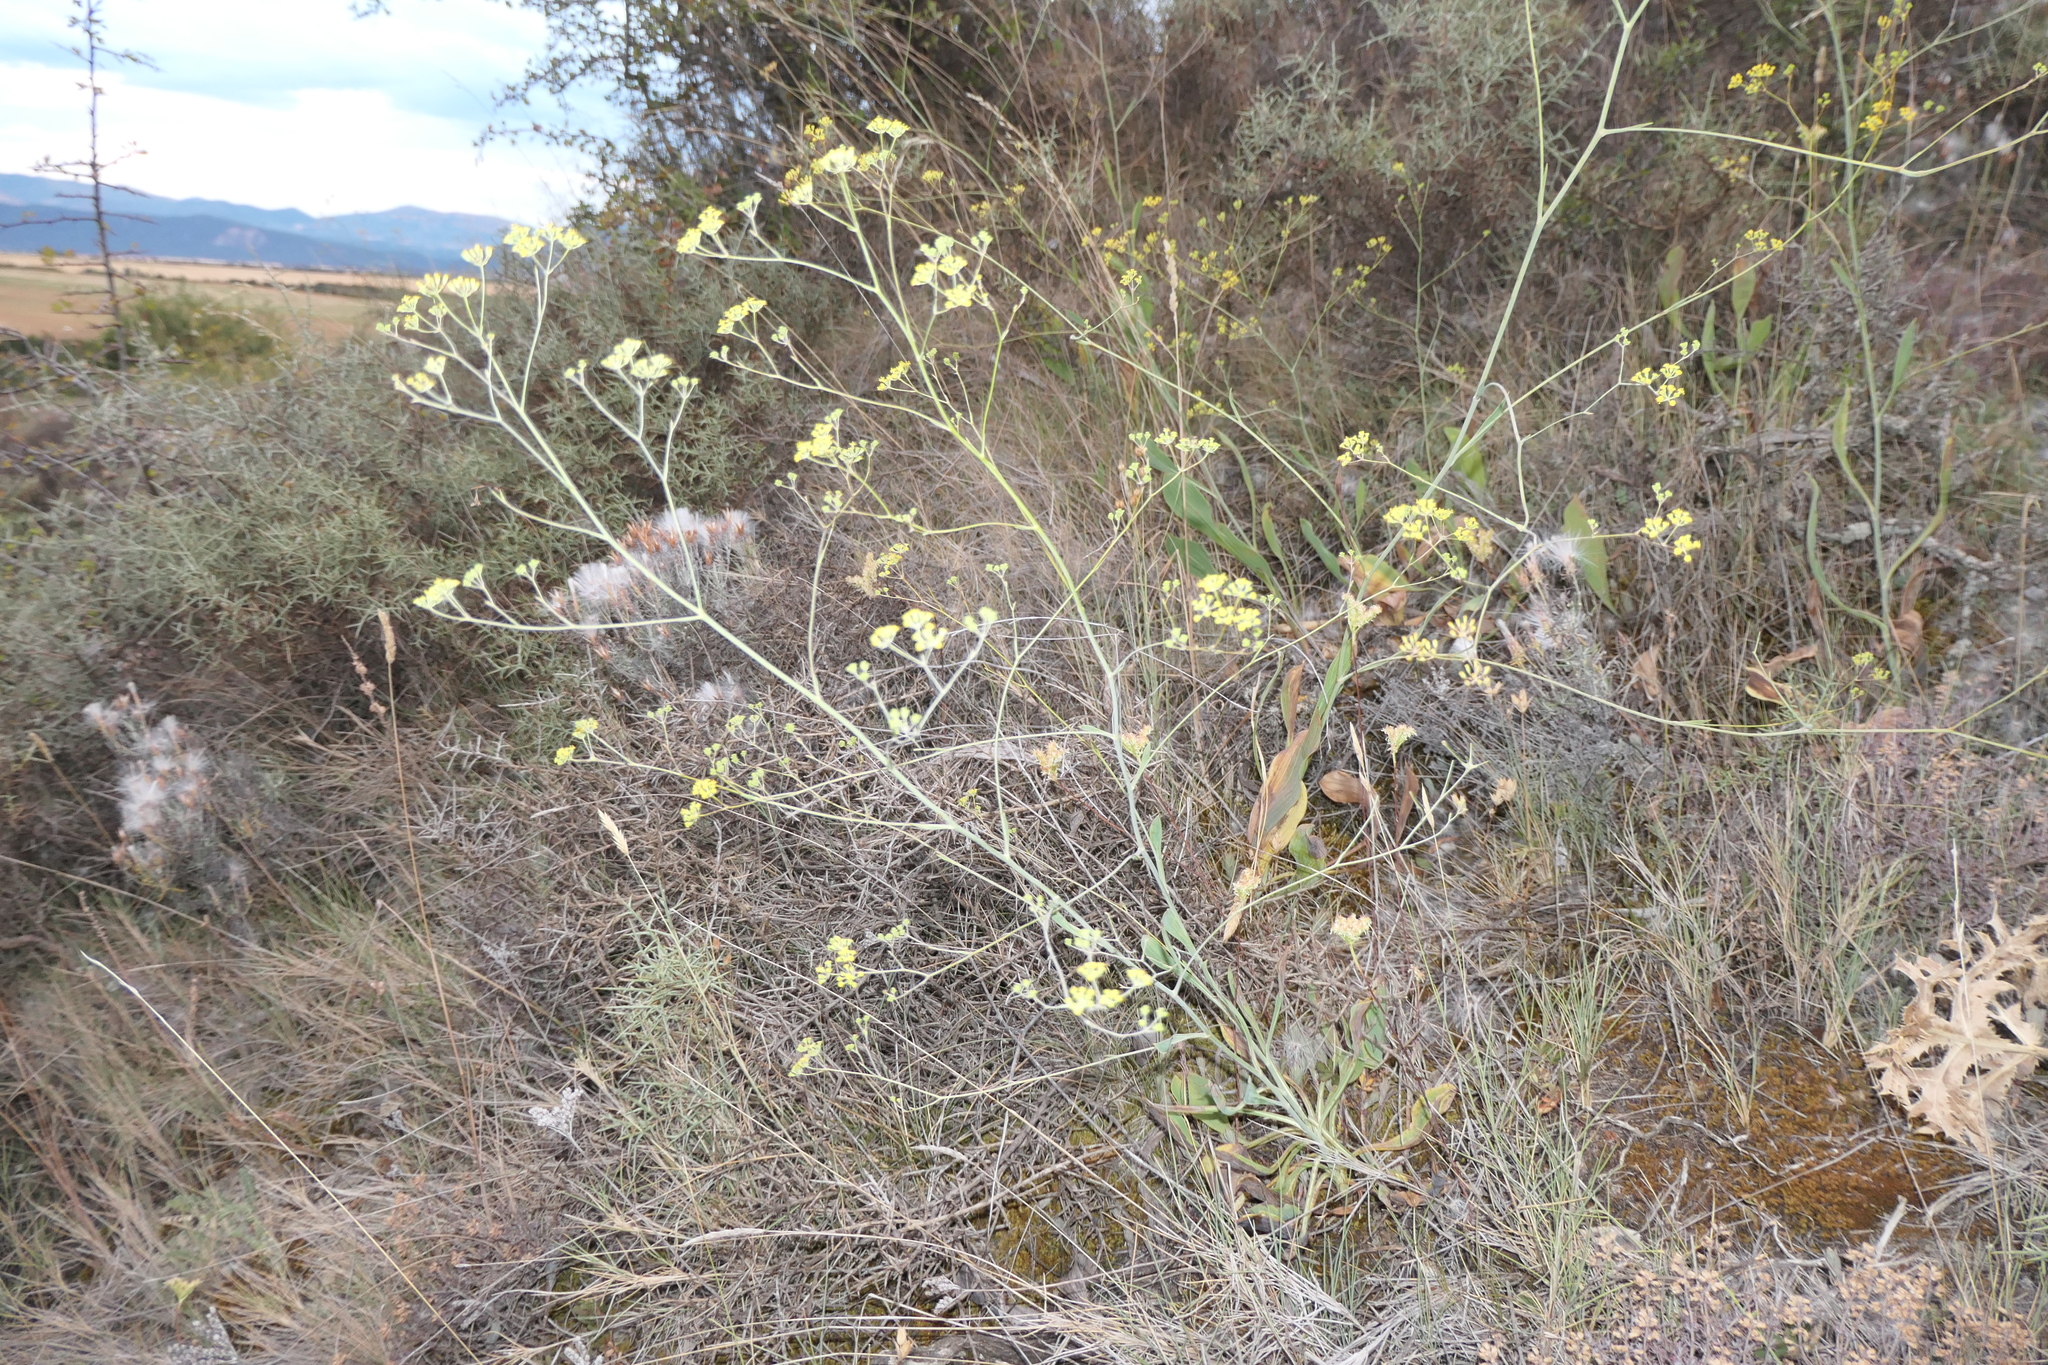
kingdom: Plantae
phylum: Tracheophyta
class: Magnoliopsida
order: Apiales
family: Apiaceae
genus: Bupleurum
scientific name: Bupleurum rigidum
